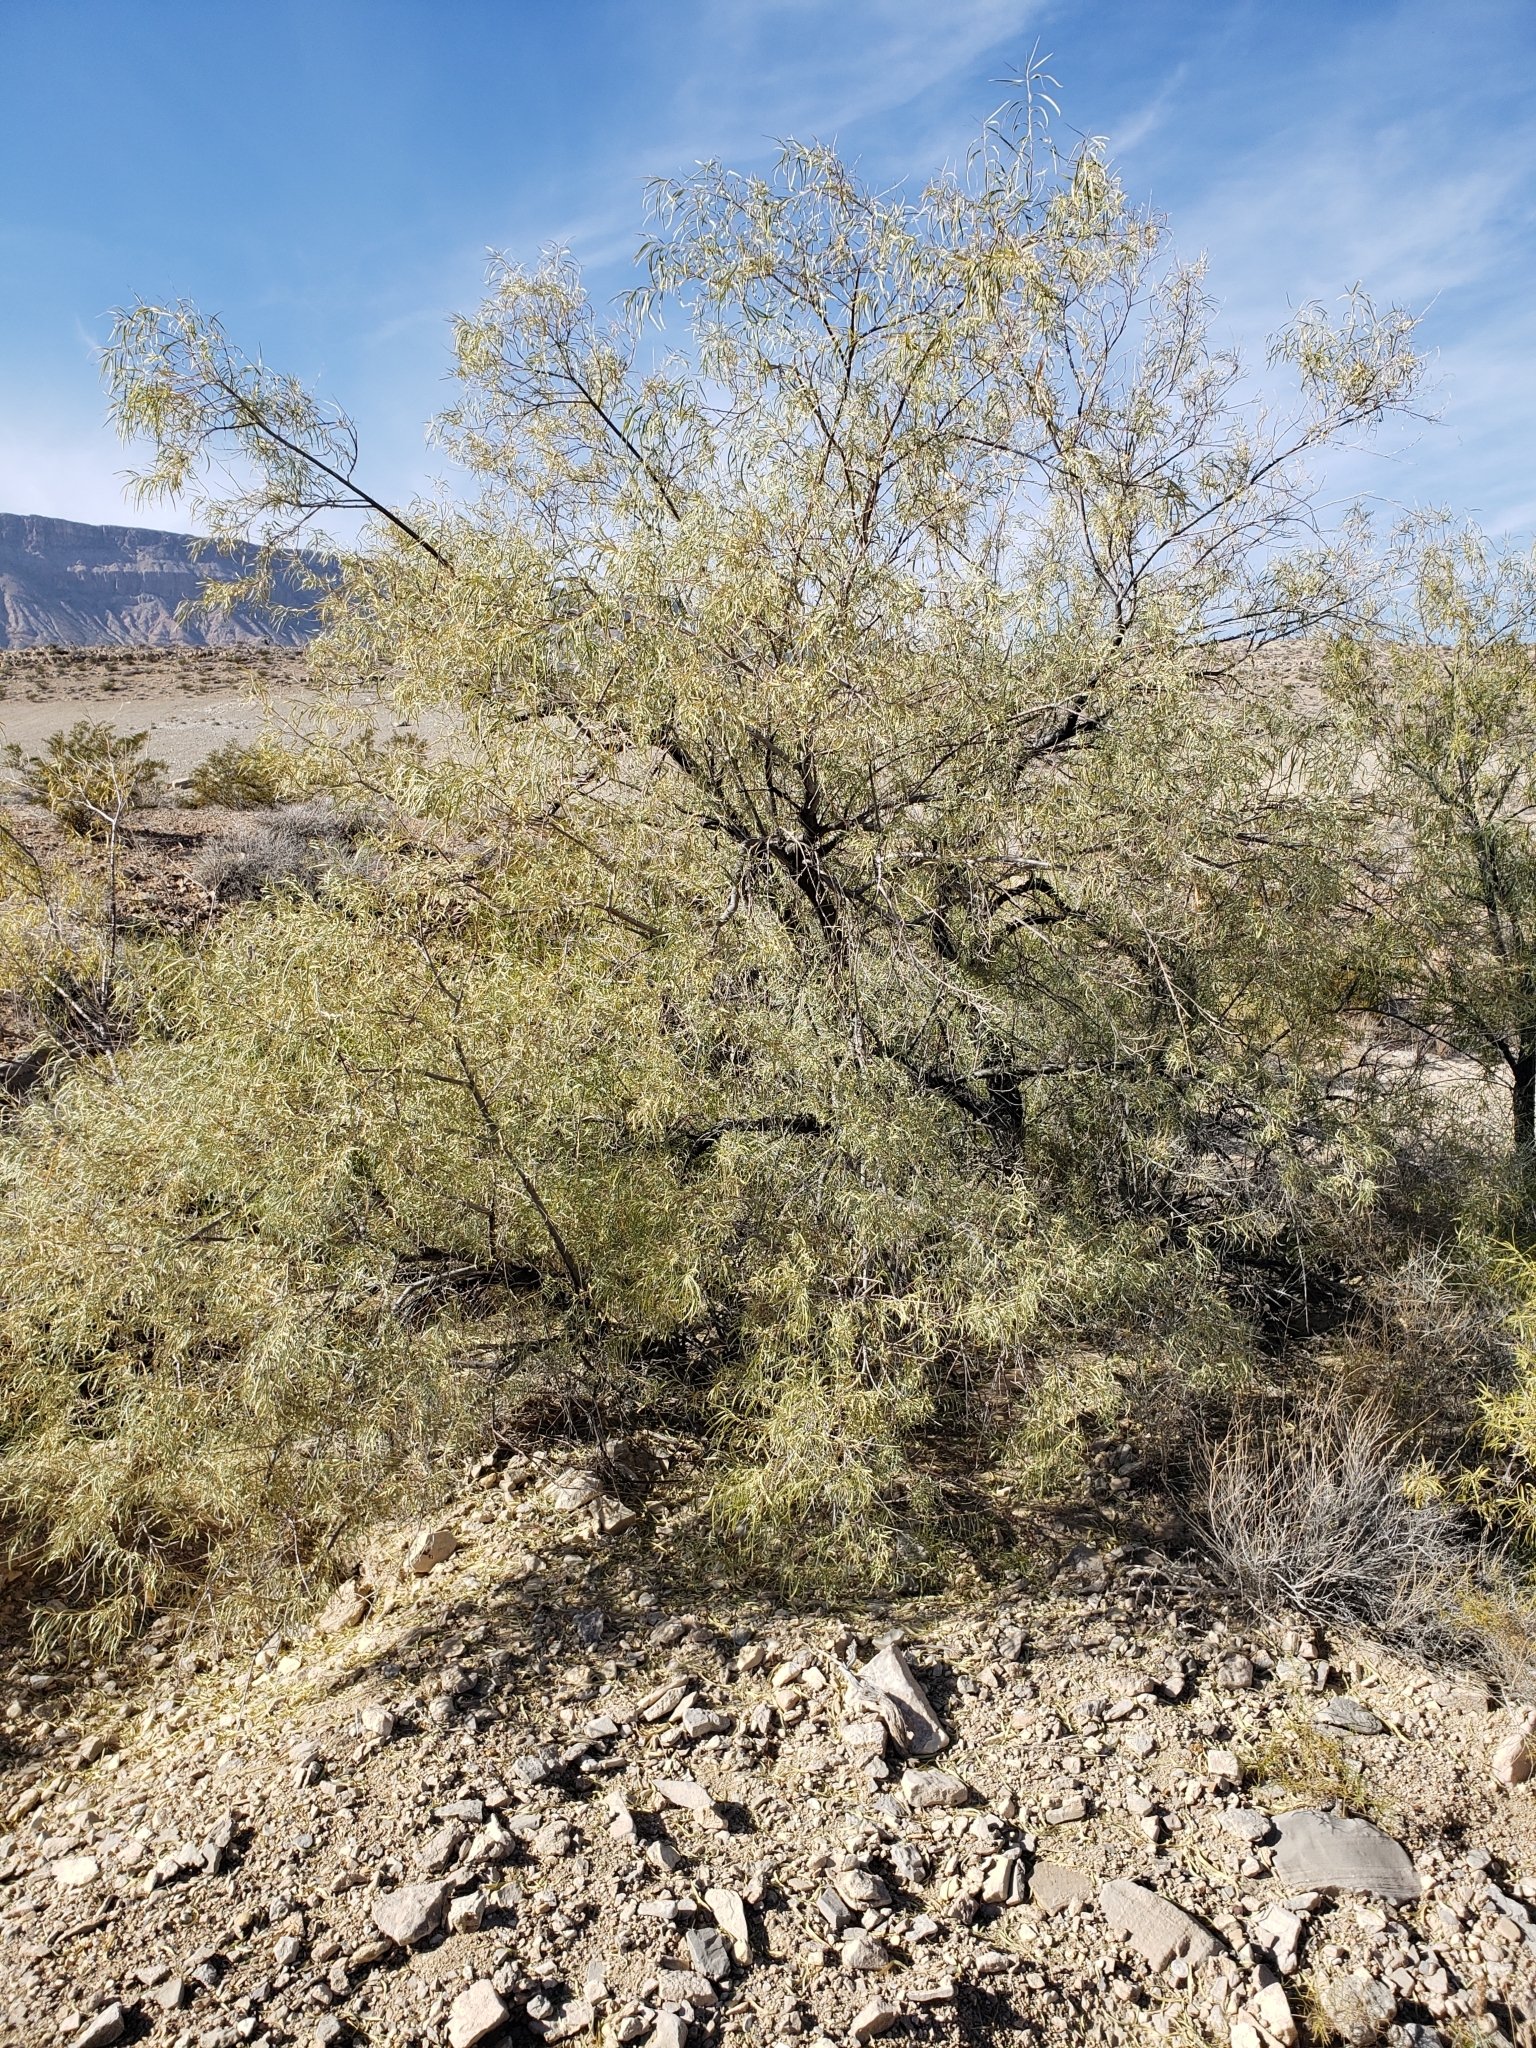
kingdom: Plantae
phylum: Tracheophyta
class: Magnoliopsida
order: Lamiales
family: Bignoniaceae
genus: Chilopsis
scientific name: Chilopsis linearis
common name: Desert-willow
